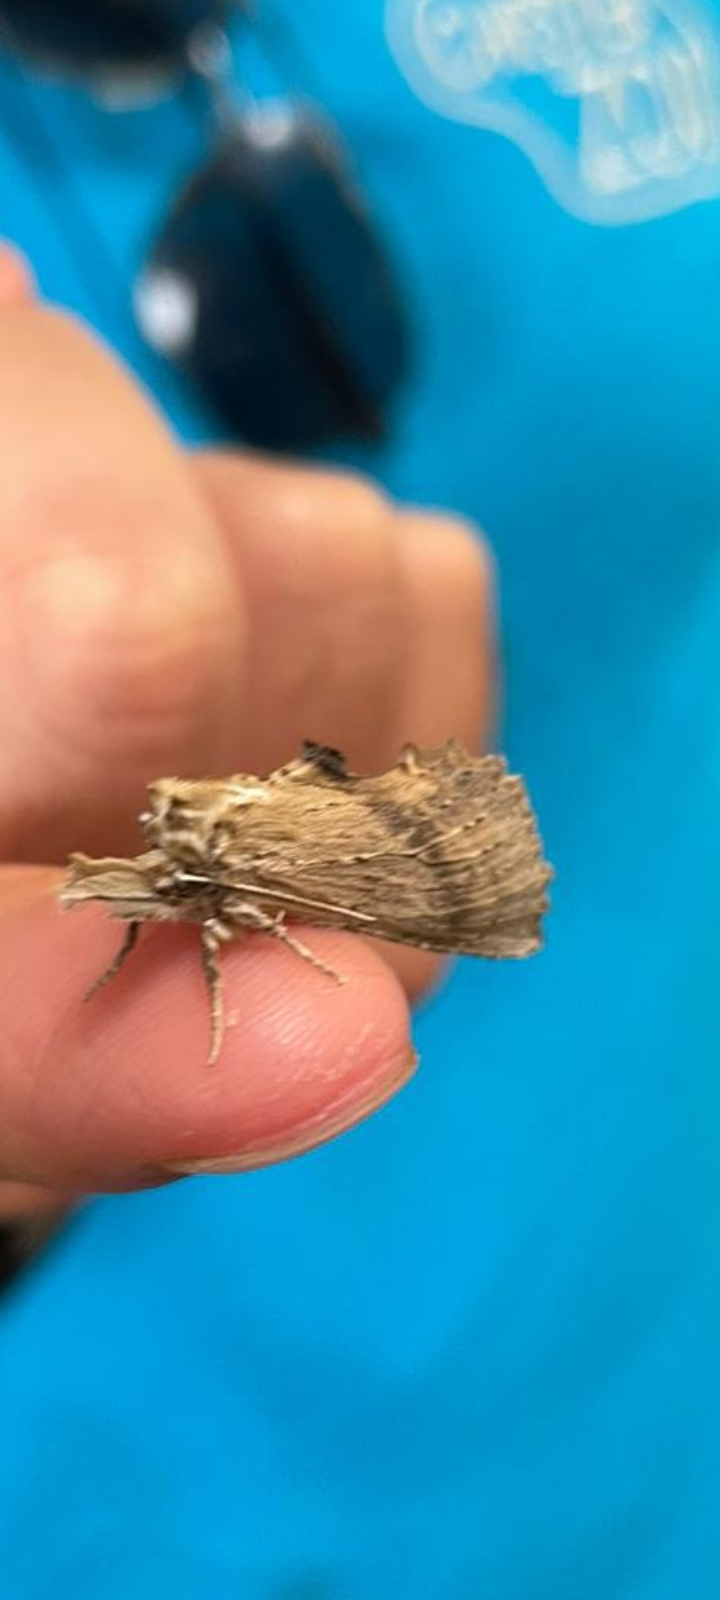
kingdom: Animalia
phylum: Arthropoda
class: Insecta
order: Lepidoptera
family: Notodontidae
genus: Pterostoma
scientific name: Pterostoma palpina
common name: Pale prominent
